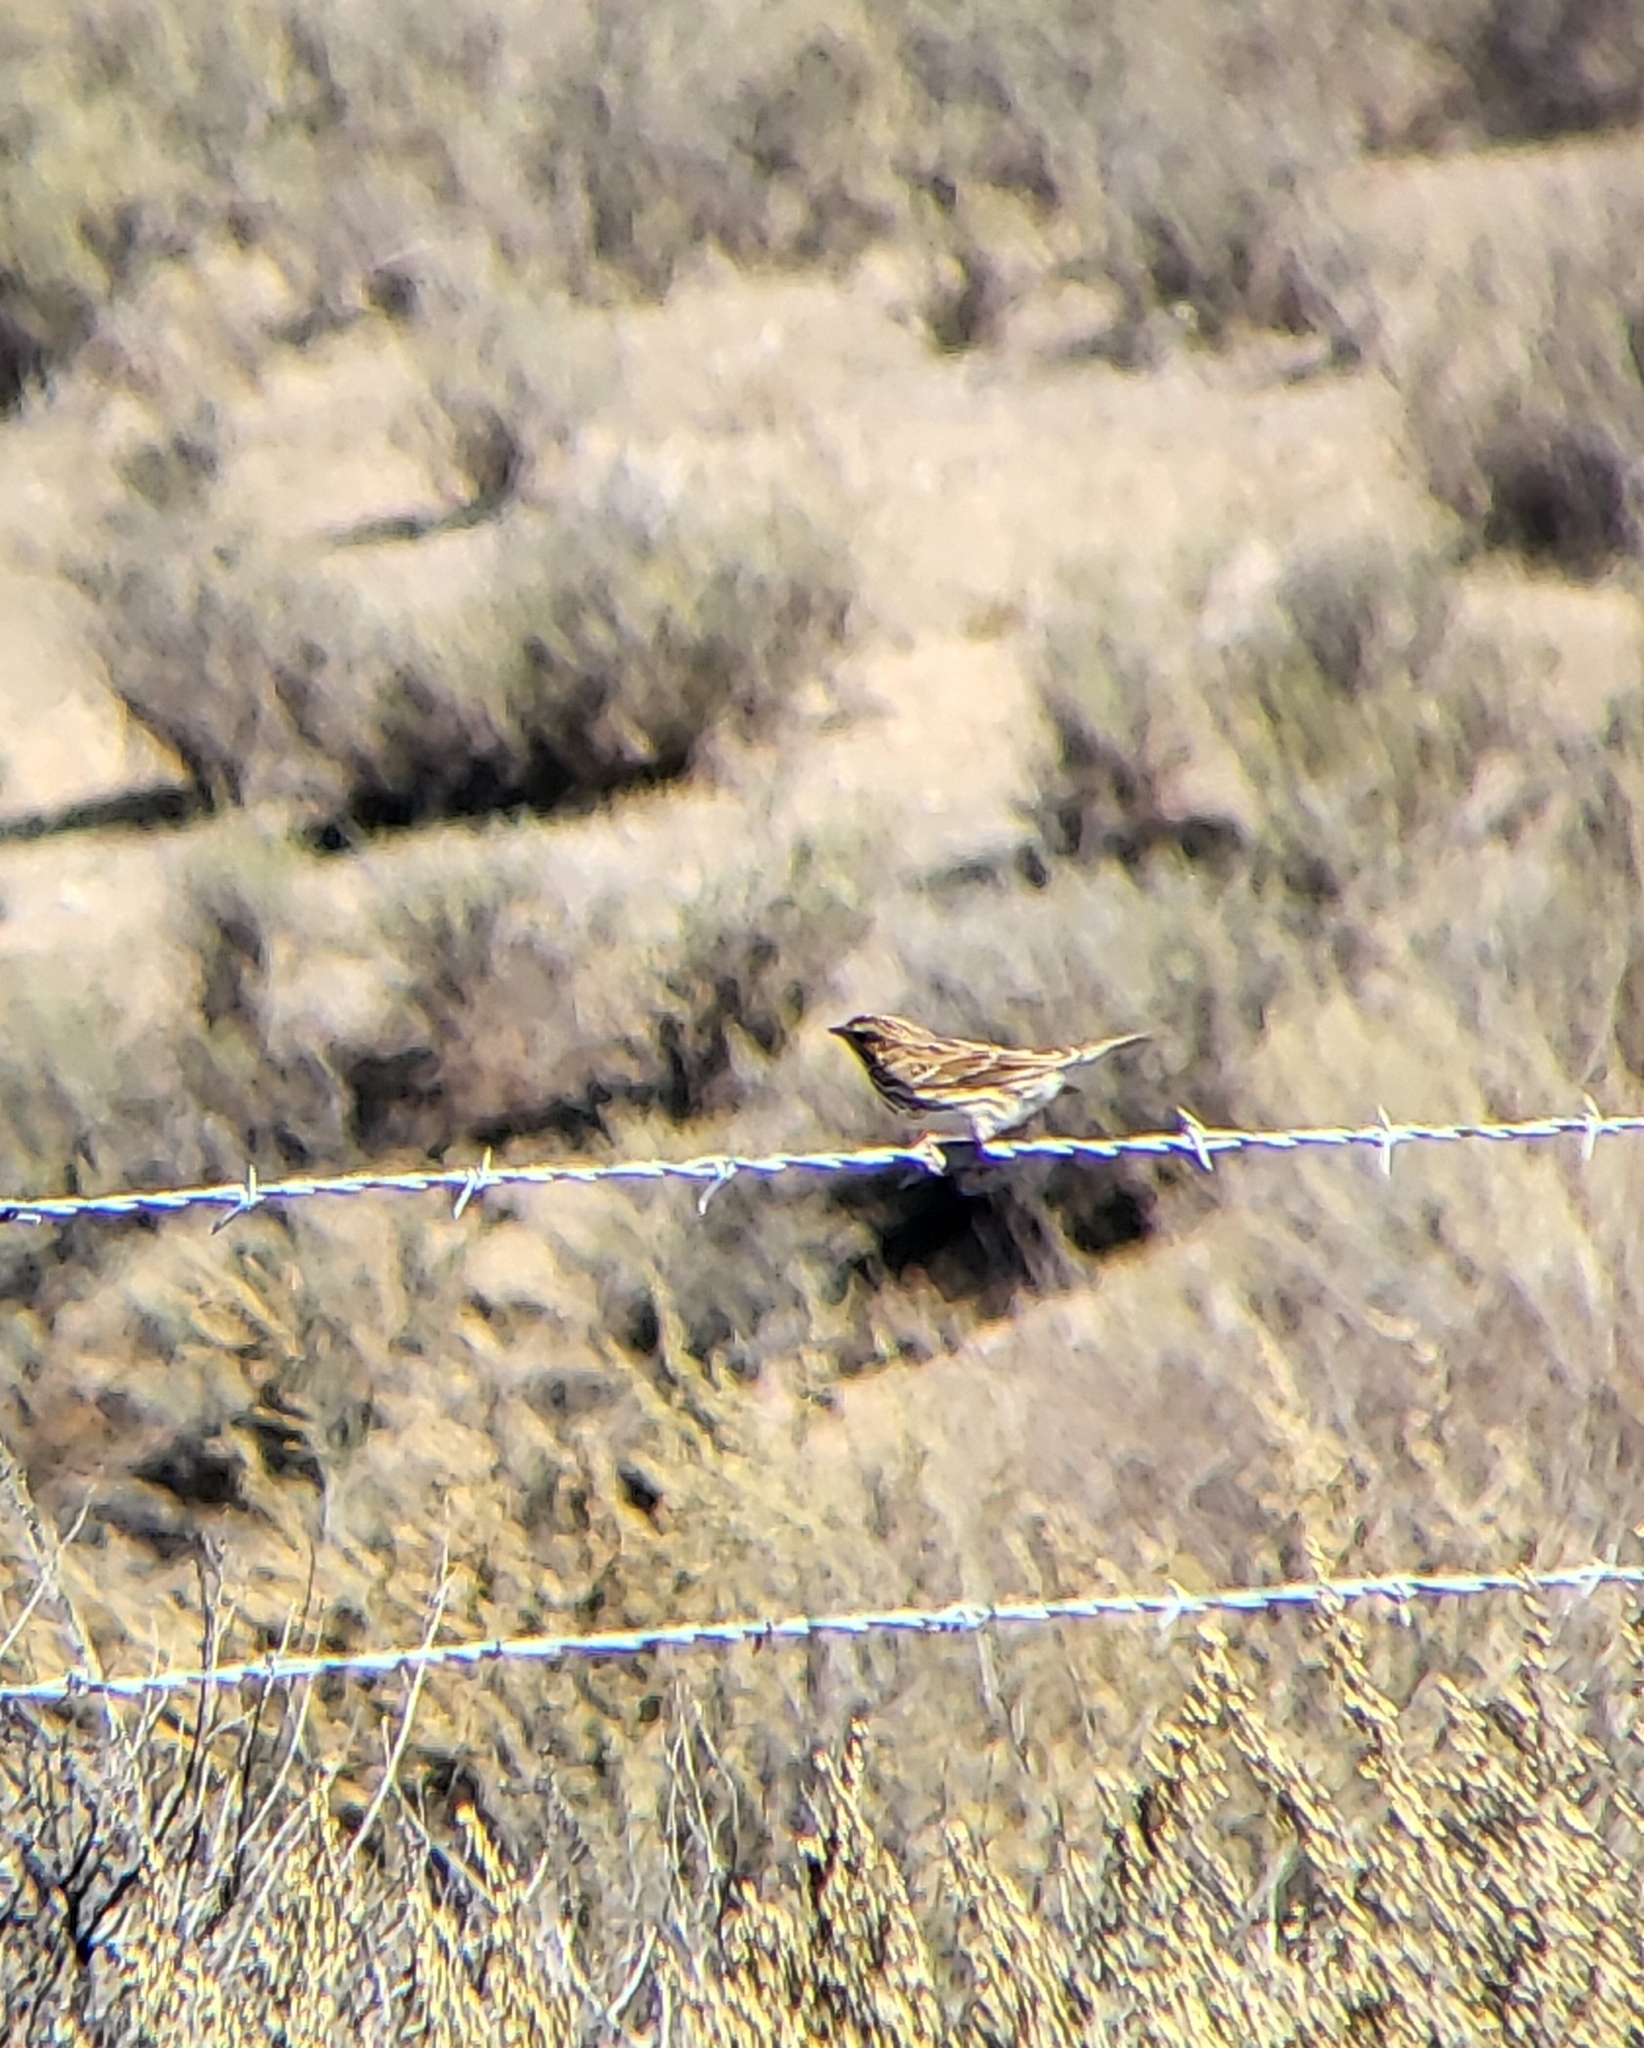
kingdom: Animalia
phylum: Chordata
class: Aves
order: Passeriformes
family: Passerellidae
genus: Passerculus
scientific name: Passerculus sandwichensis
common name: Savannah sparrow
